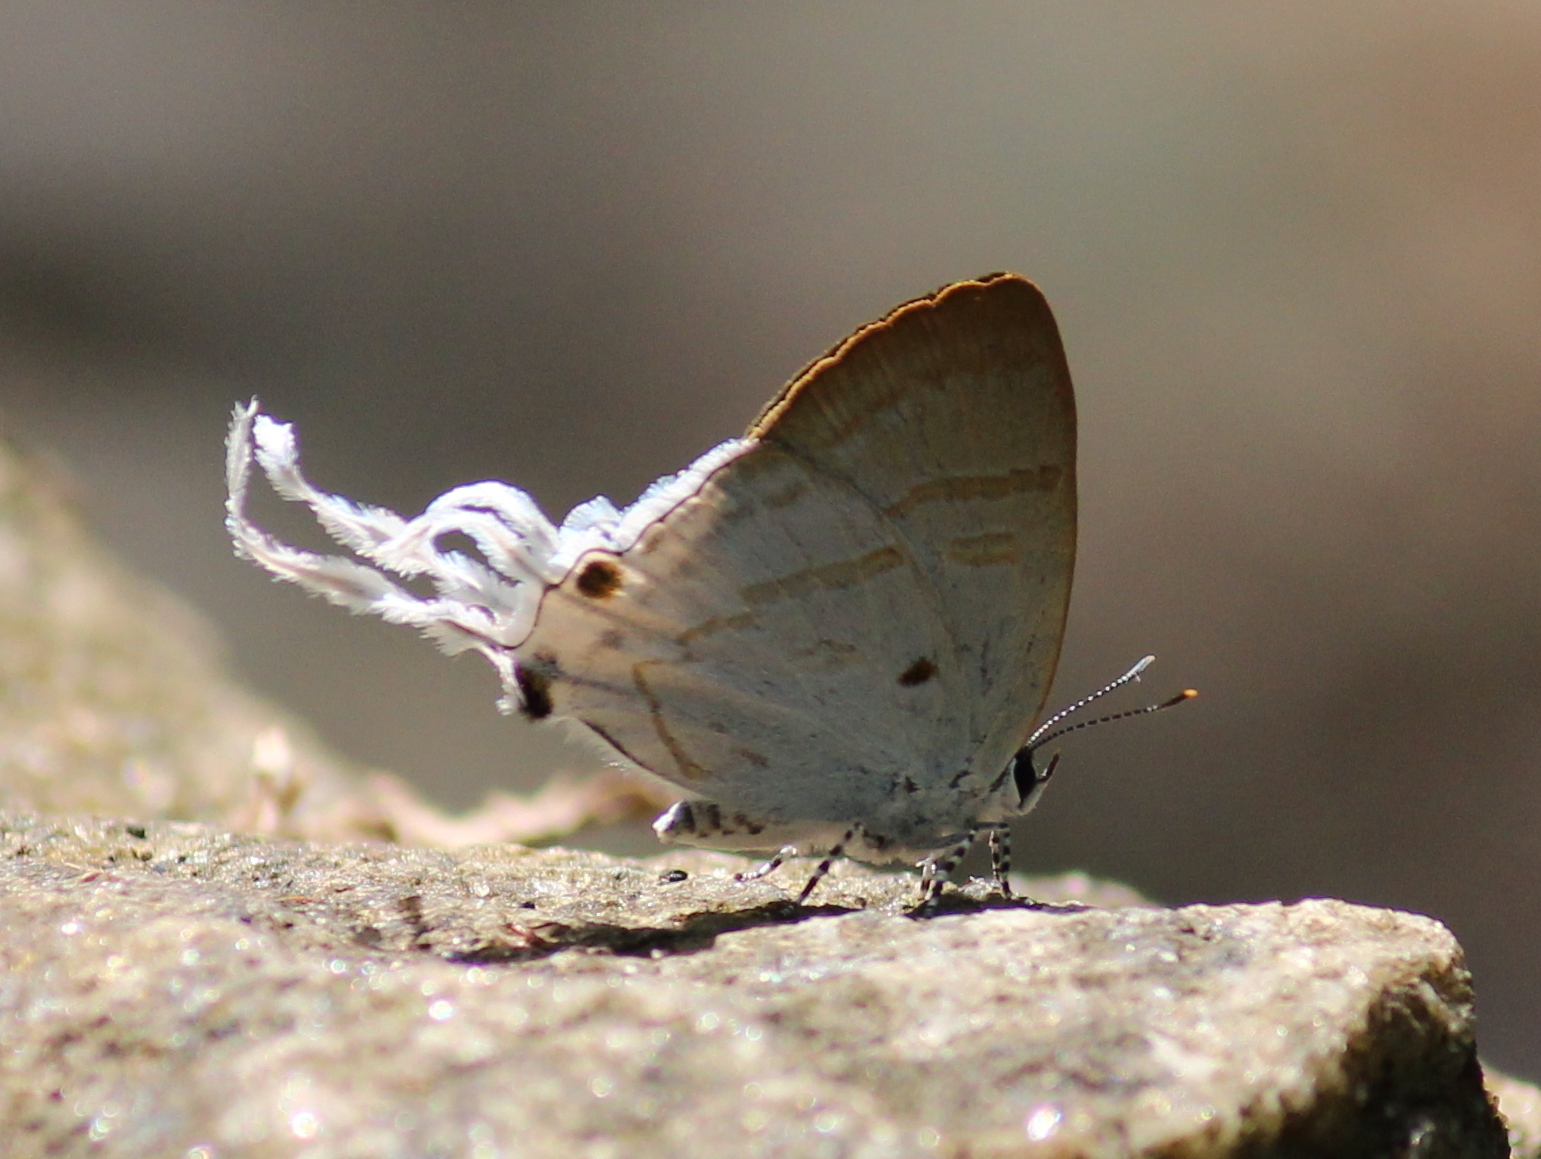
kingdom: Animalia
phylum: Arthropoda
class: Insecta
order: Lepidoptera
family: Lycaenidae
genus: Zeltus
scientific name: Zeltus amasa
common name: Fluffy tit
